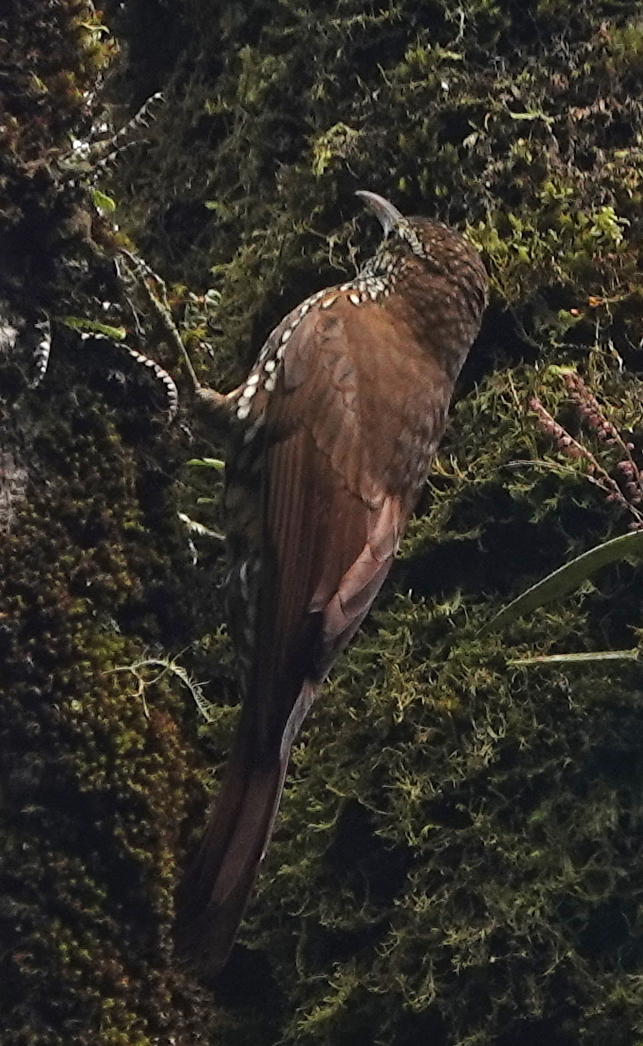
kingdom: Animalia
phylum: Chordata
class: Aves
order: Passeriformes
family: Furnariidae
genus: Lepidocolaptes
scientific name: Lepidocolaptes lacrymiger
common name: Montane woodcreeper
